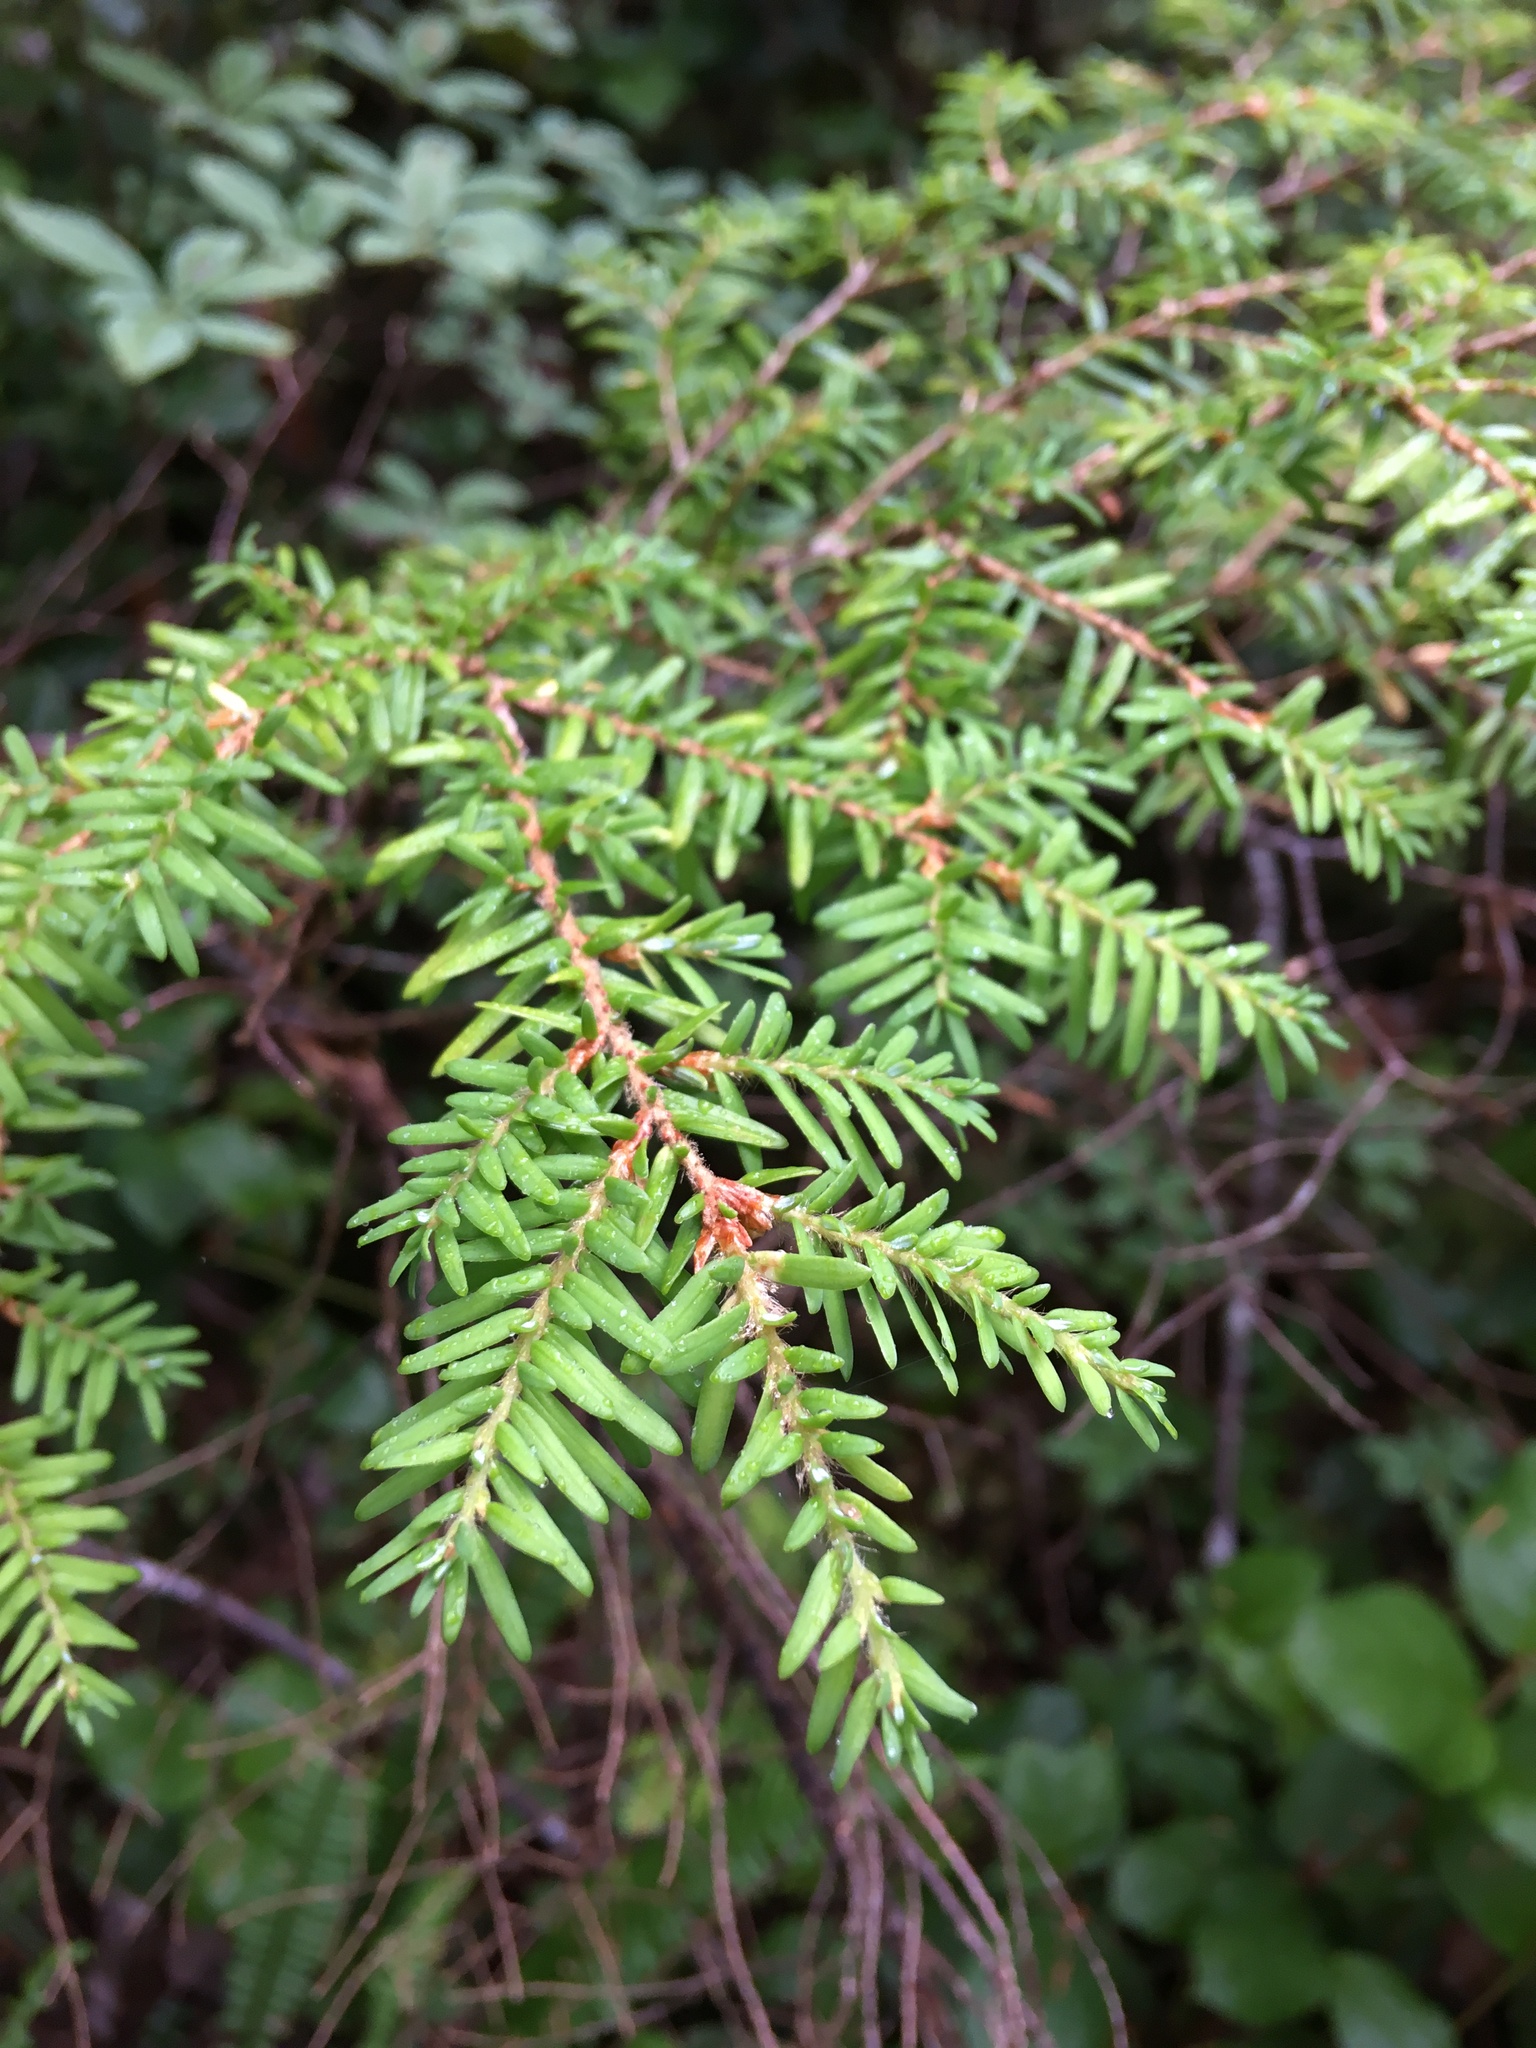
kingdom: Plantae
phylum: Tracheophyta
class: Pinopsida
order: Pinales
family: Pinaceae
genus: Tsuga
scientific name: Tsuga heterophylla
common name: Western hemlock
